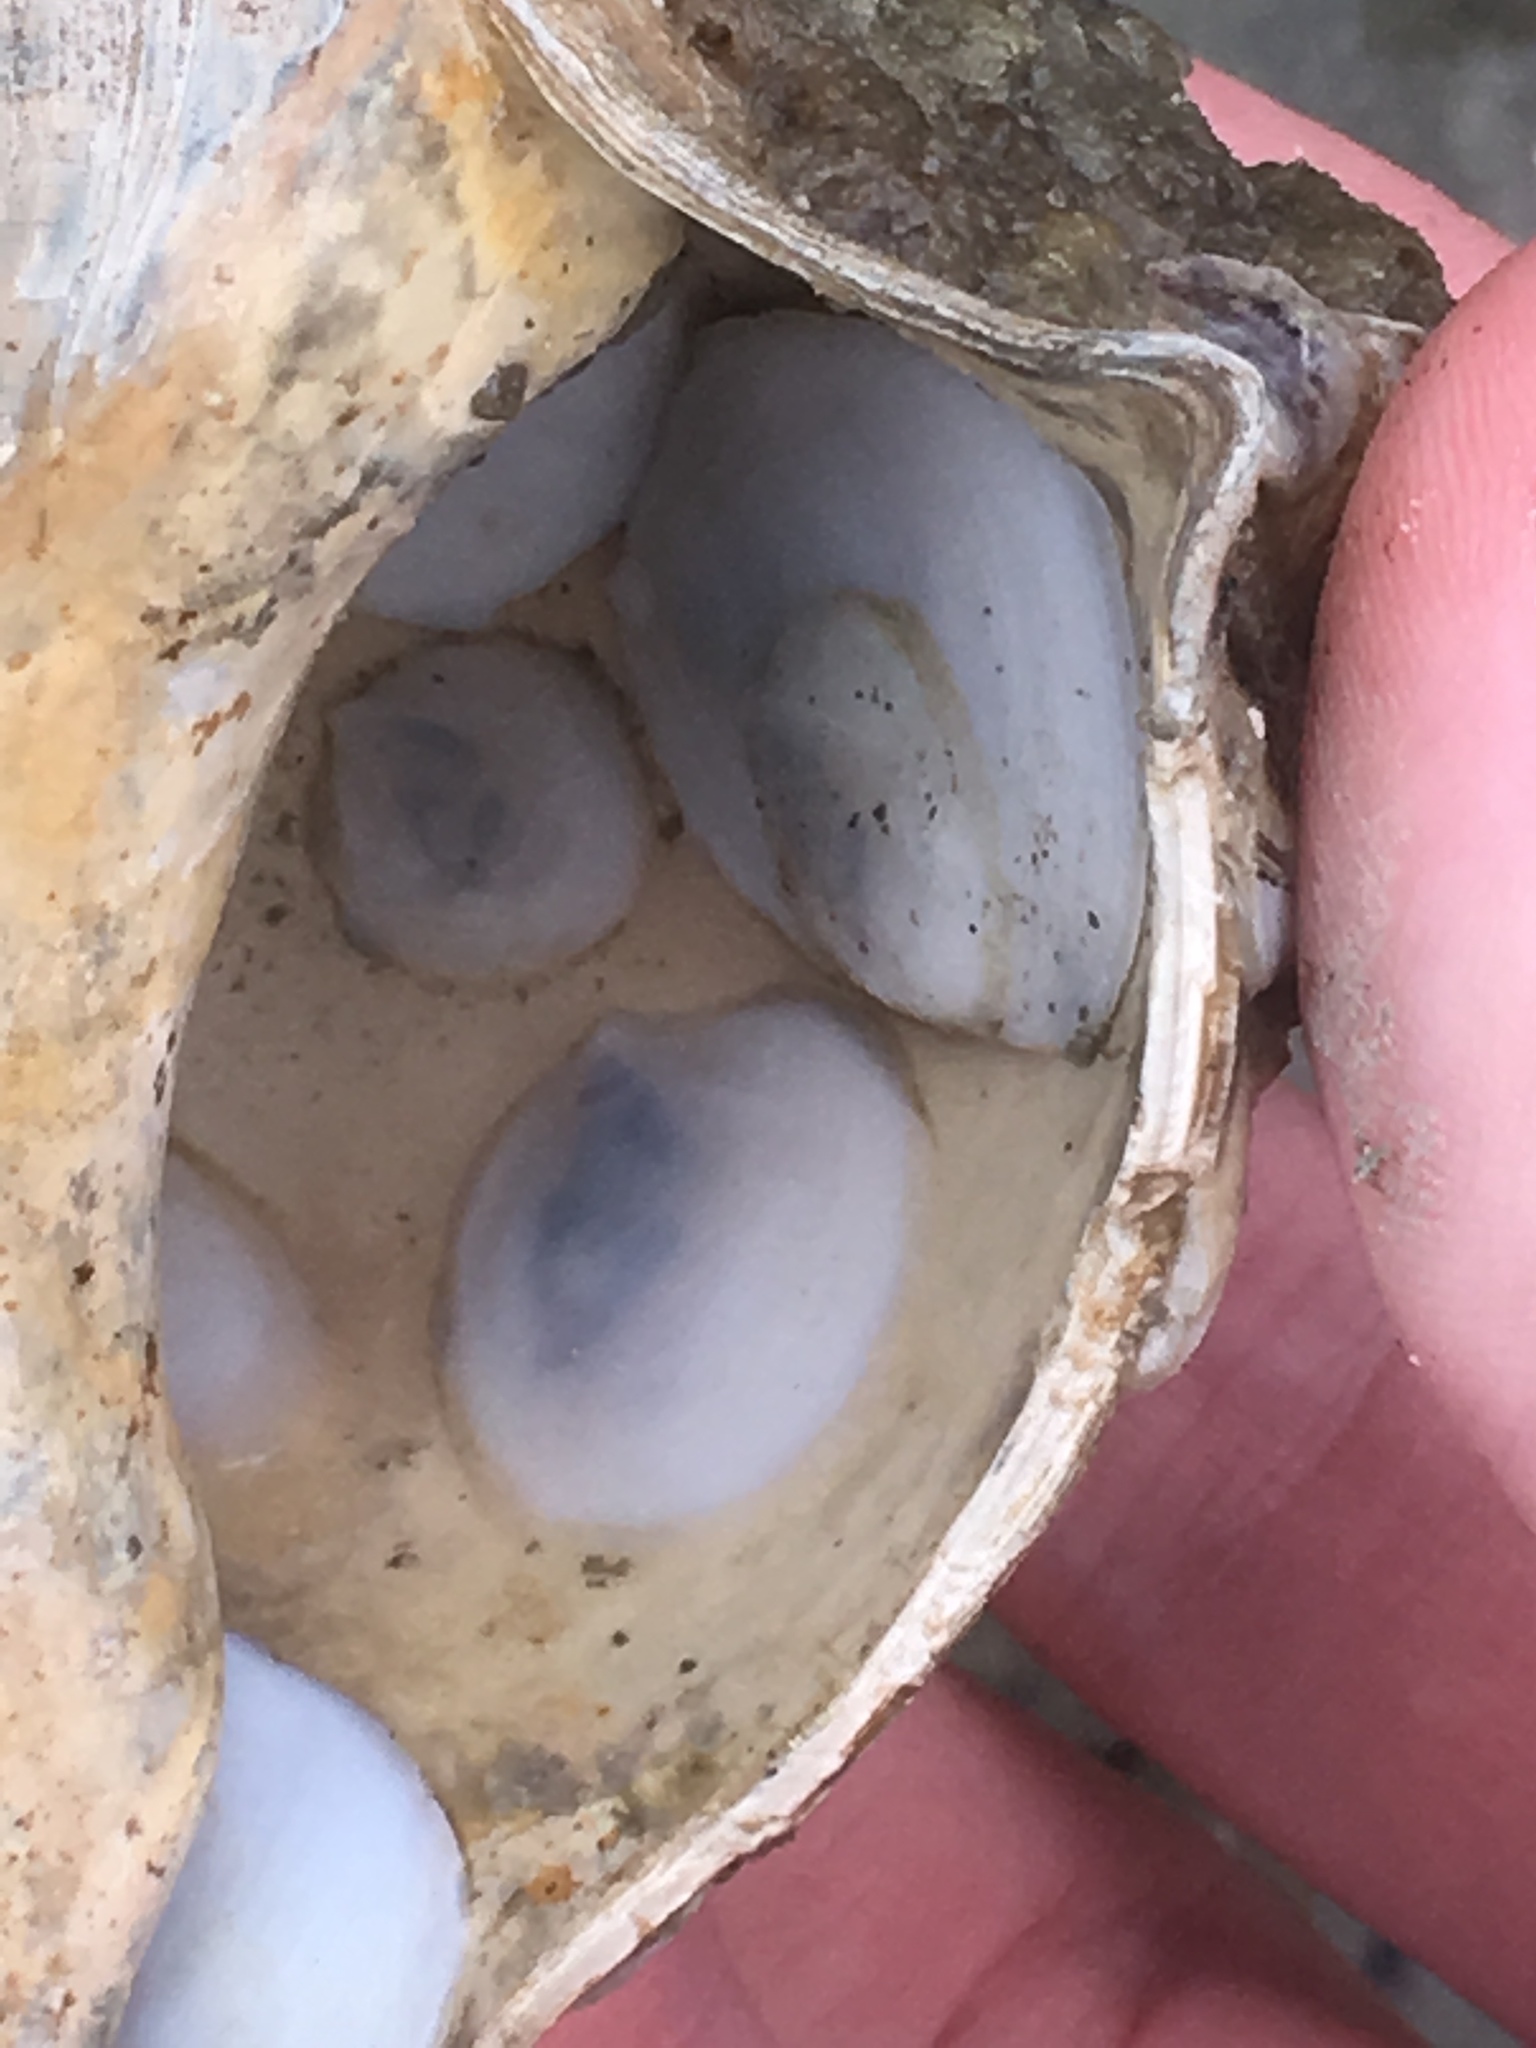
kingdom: Animalia
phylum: Mollusca
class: Gastropoda
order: Littorinimorpha
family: Calyptraeidae
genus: Crepidula
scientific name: Crepidula plana
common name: Eastern white slippersnail
